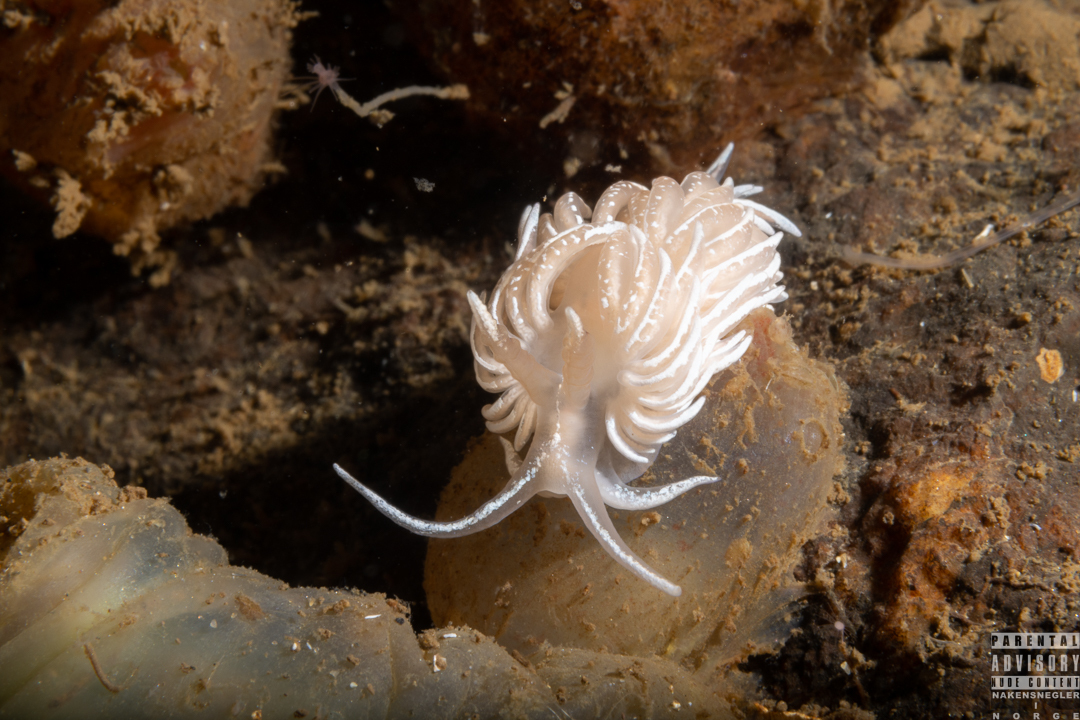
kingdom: Animalia
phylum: Mollusca
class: Gastropoda
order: Nudibranchia
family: Facelinidae
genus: Favorinus
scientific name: Favorinus blianus
